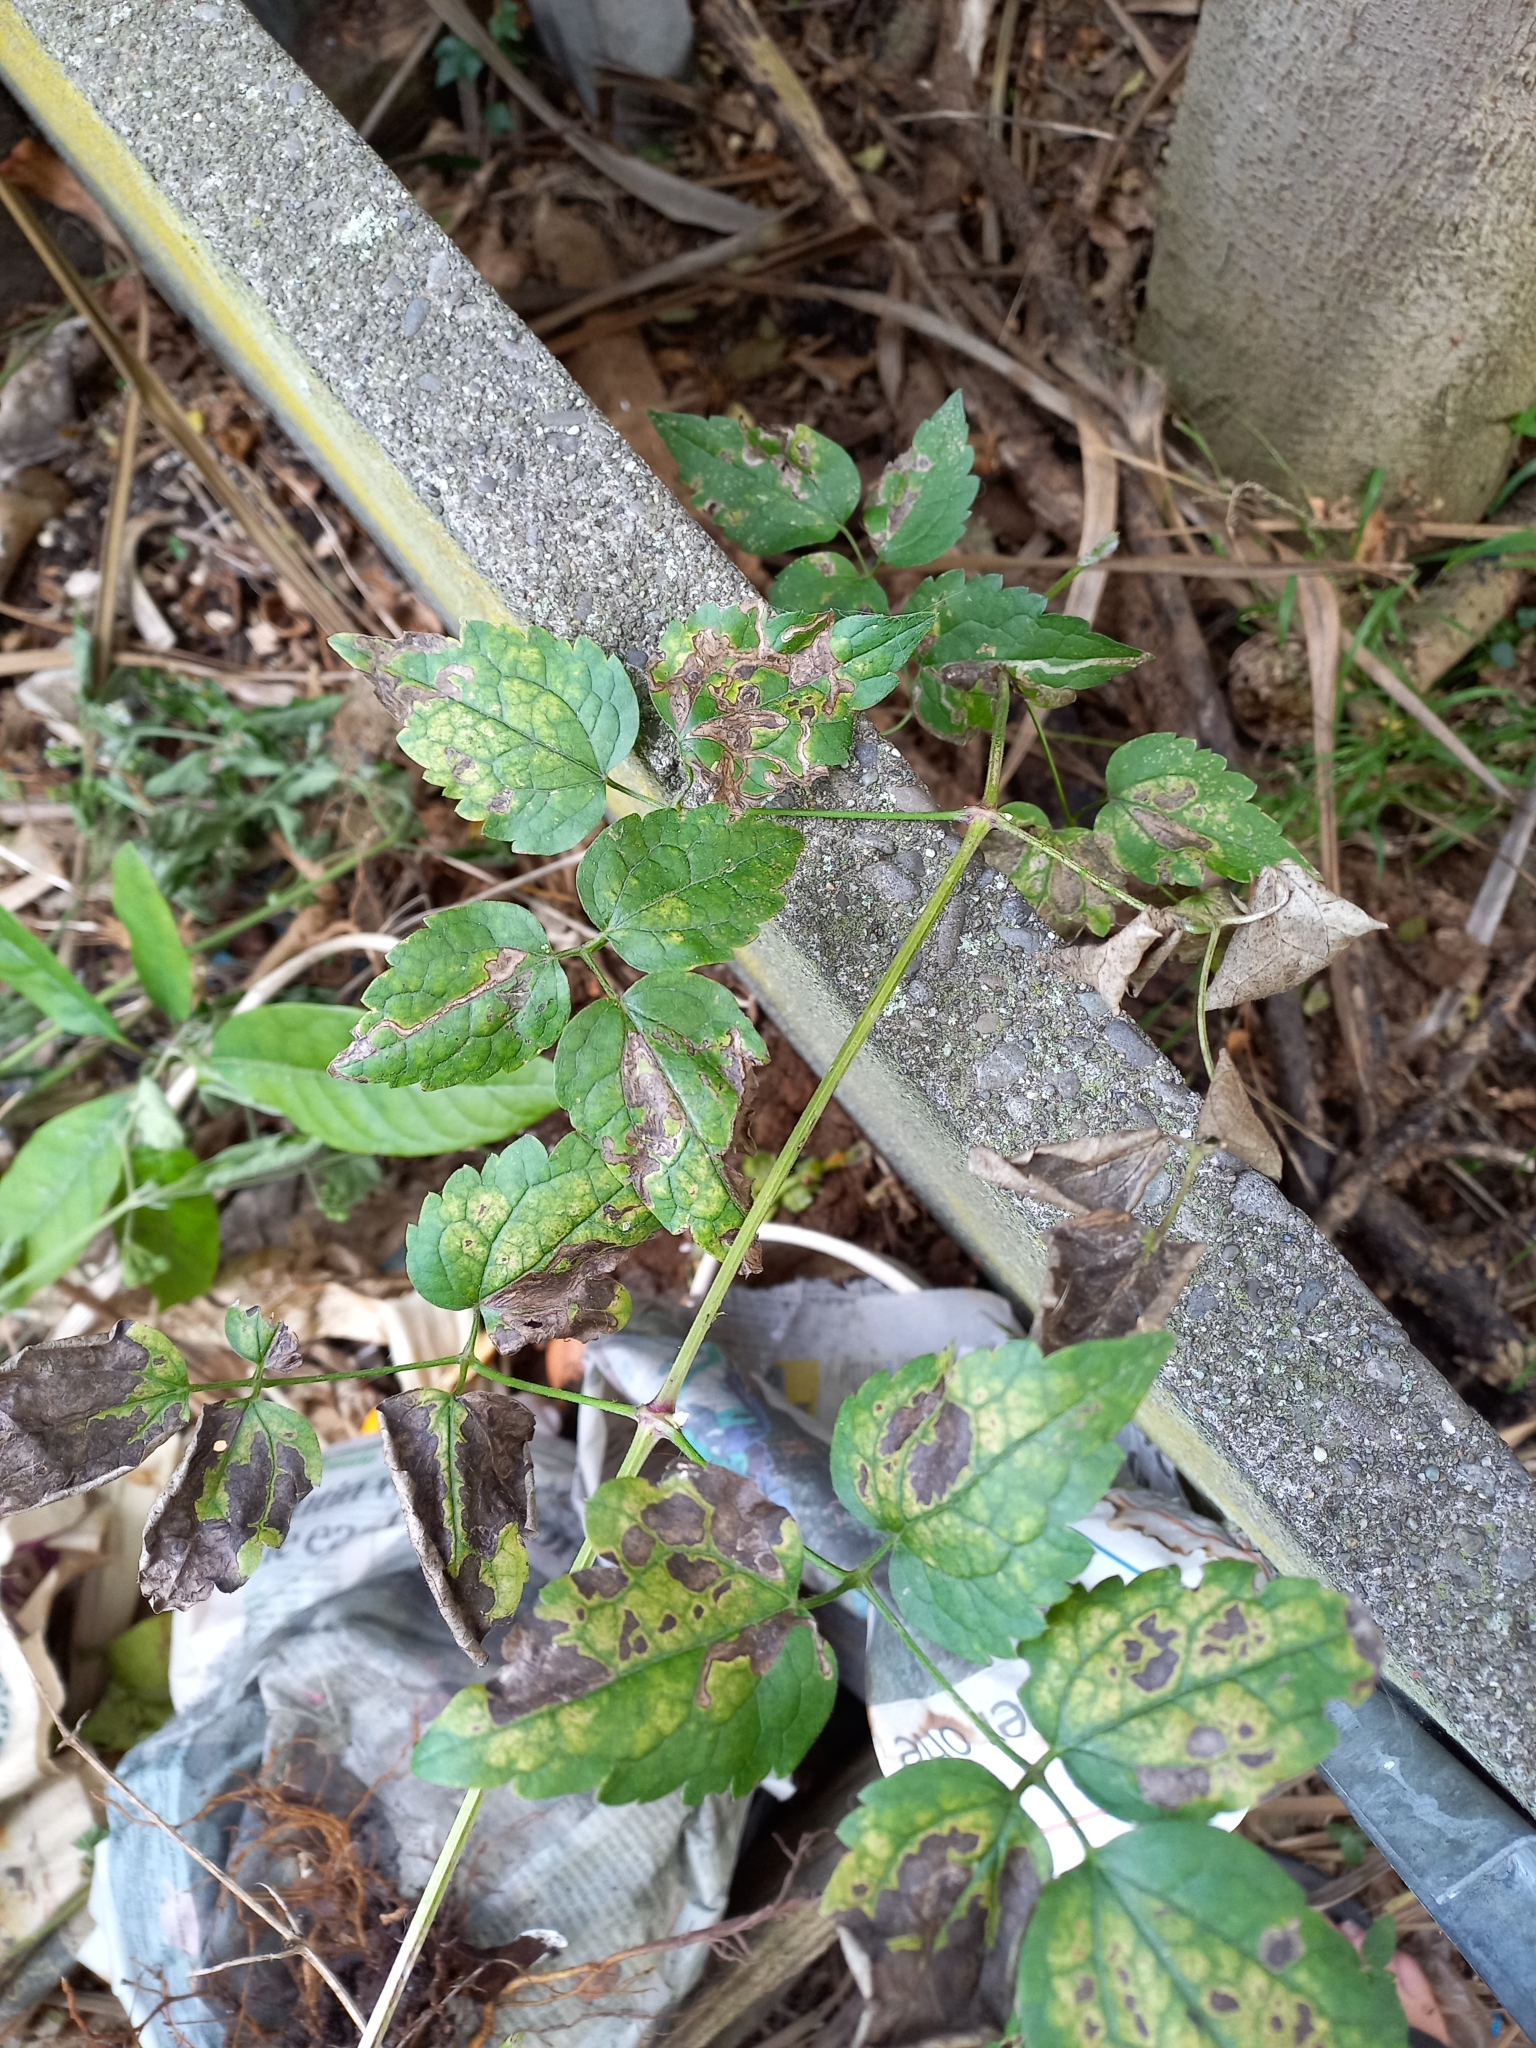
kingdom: Plantae
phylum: Tracheophyta
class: Magnoliopsida
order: Ranunculales
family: Ranunculaceae
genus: Clematis
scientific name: Clematis vitalba
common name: Evergreen clematis
